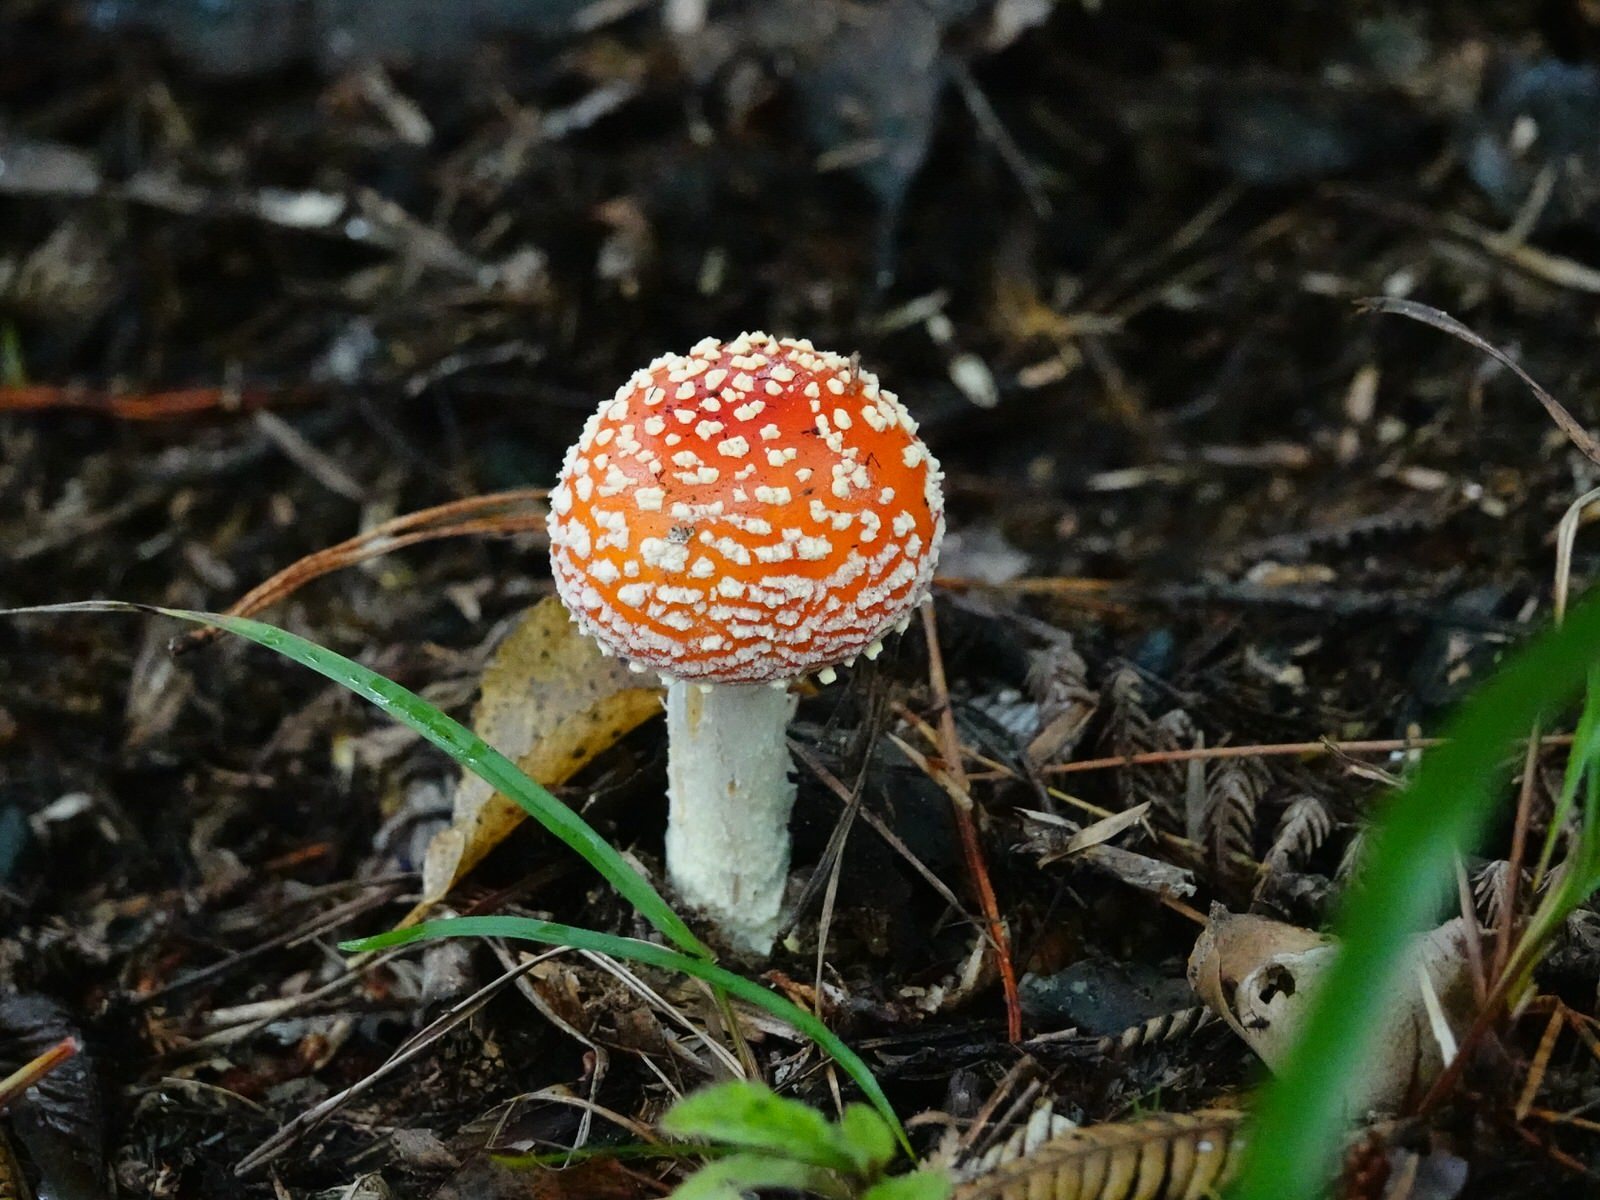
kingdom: Fungi
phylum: Basidiomycota
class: Agaricomycetes
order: Agaricales
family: Amanitaceae
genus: Amanita
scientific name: Amanita muscaria
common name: Fly agaric
